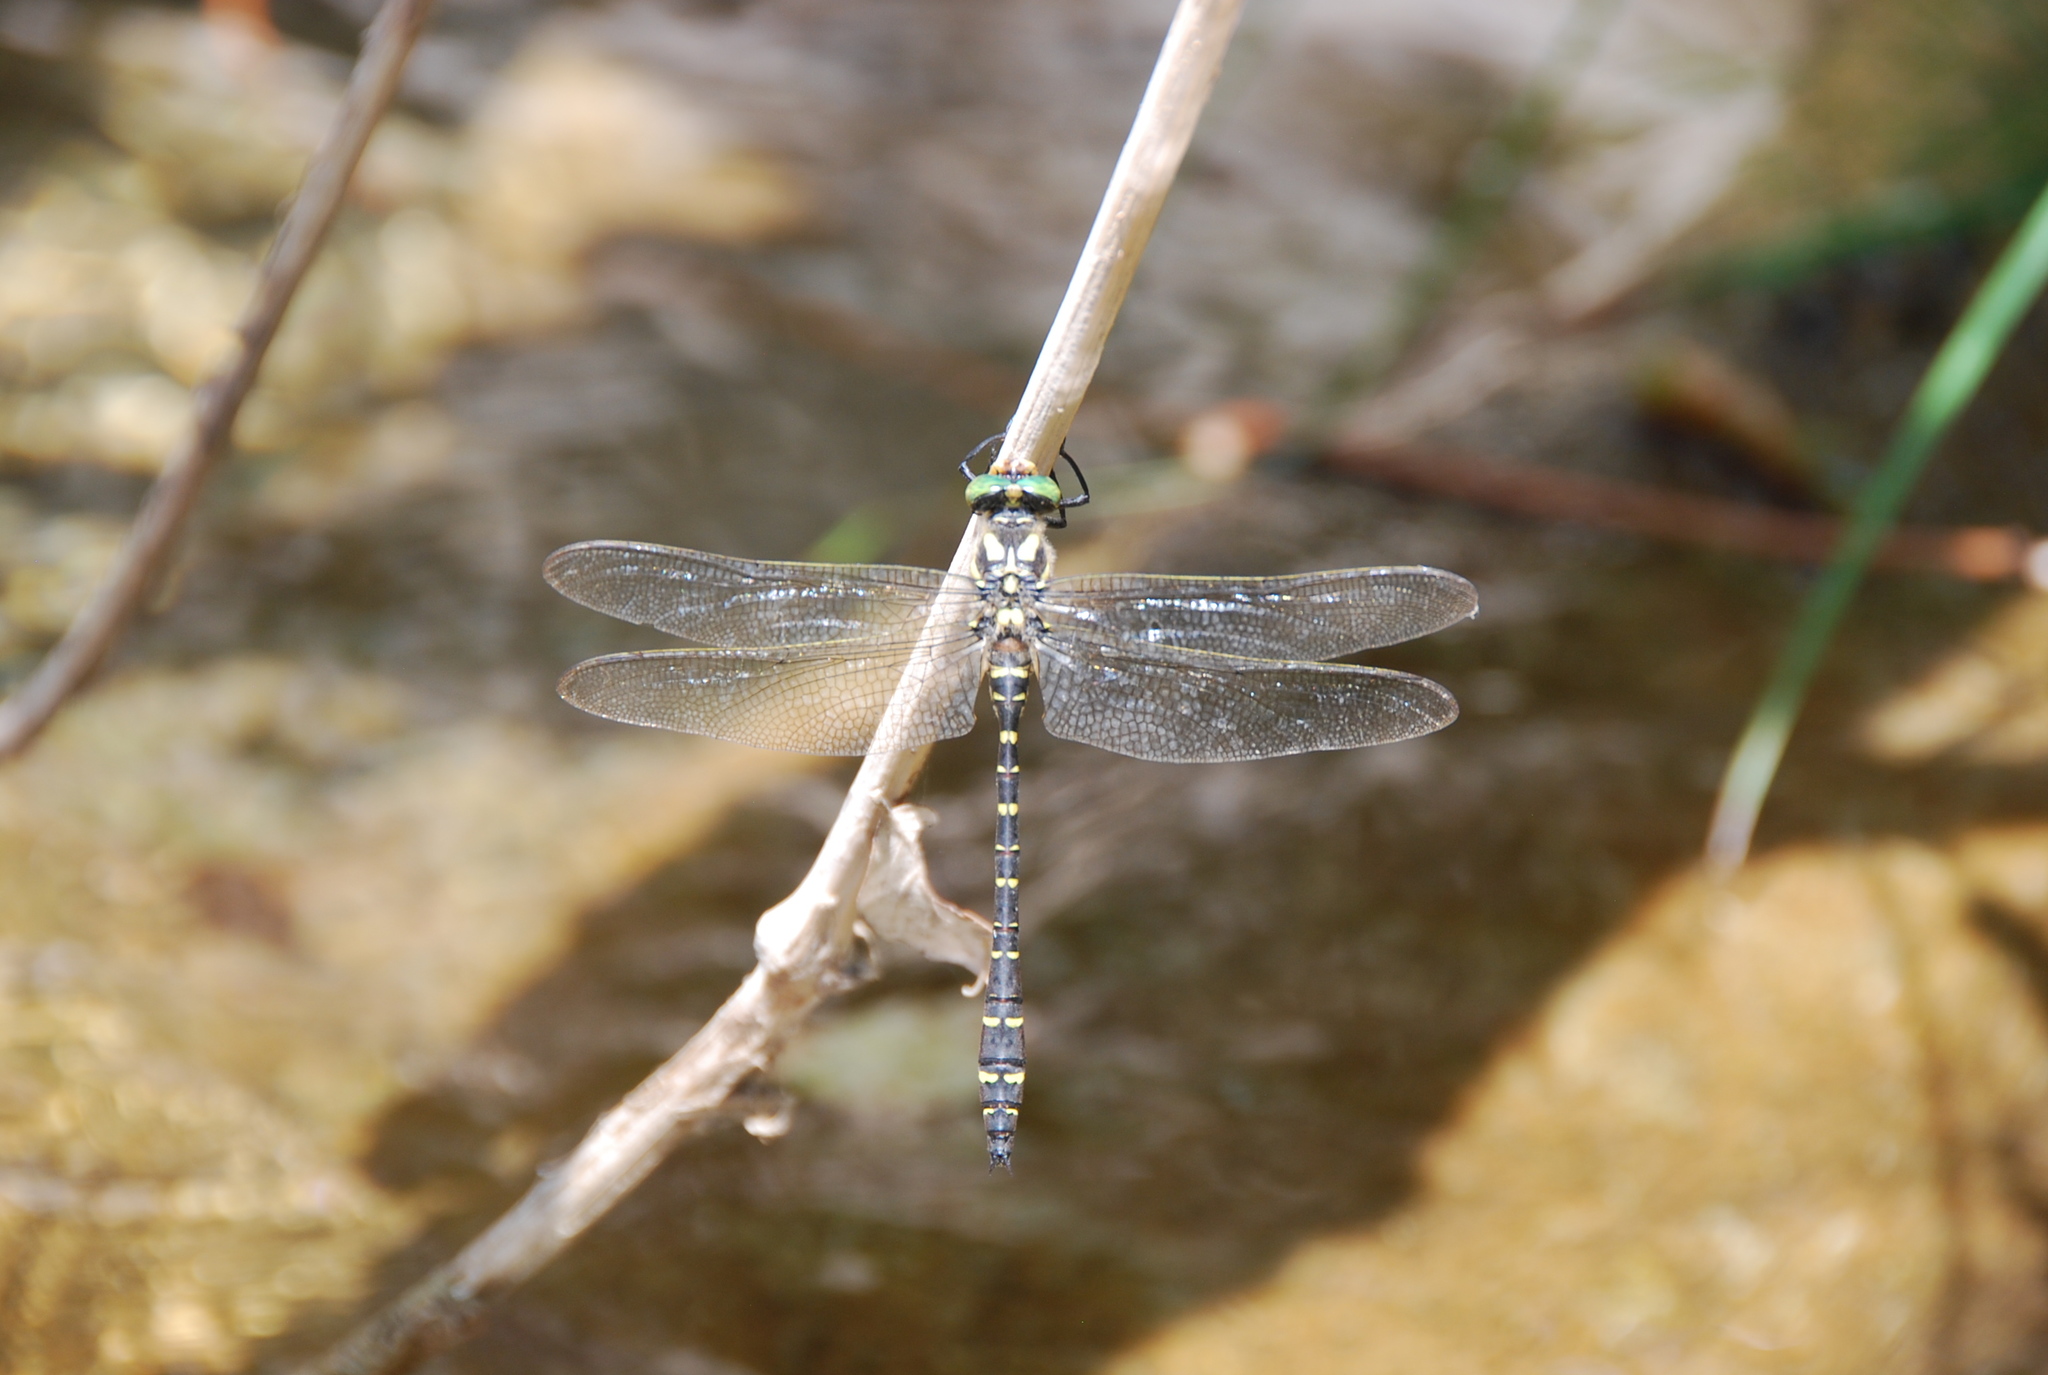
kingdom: Animalia
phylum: Arthropoda
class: Insecta
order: Odonata
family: Cordulegastridae
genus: Cordulegaster
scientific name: Cordulegaster trinacriae
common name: Italian goldenring
